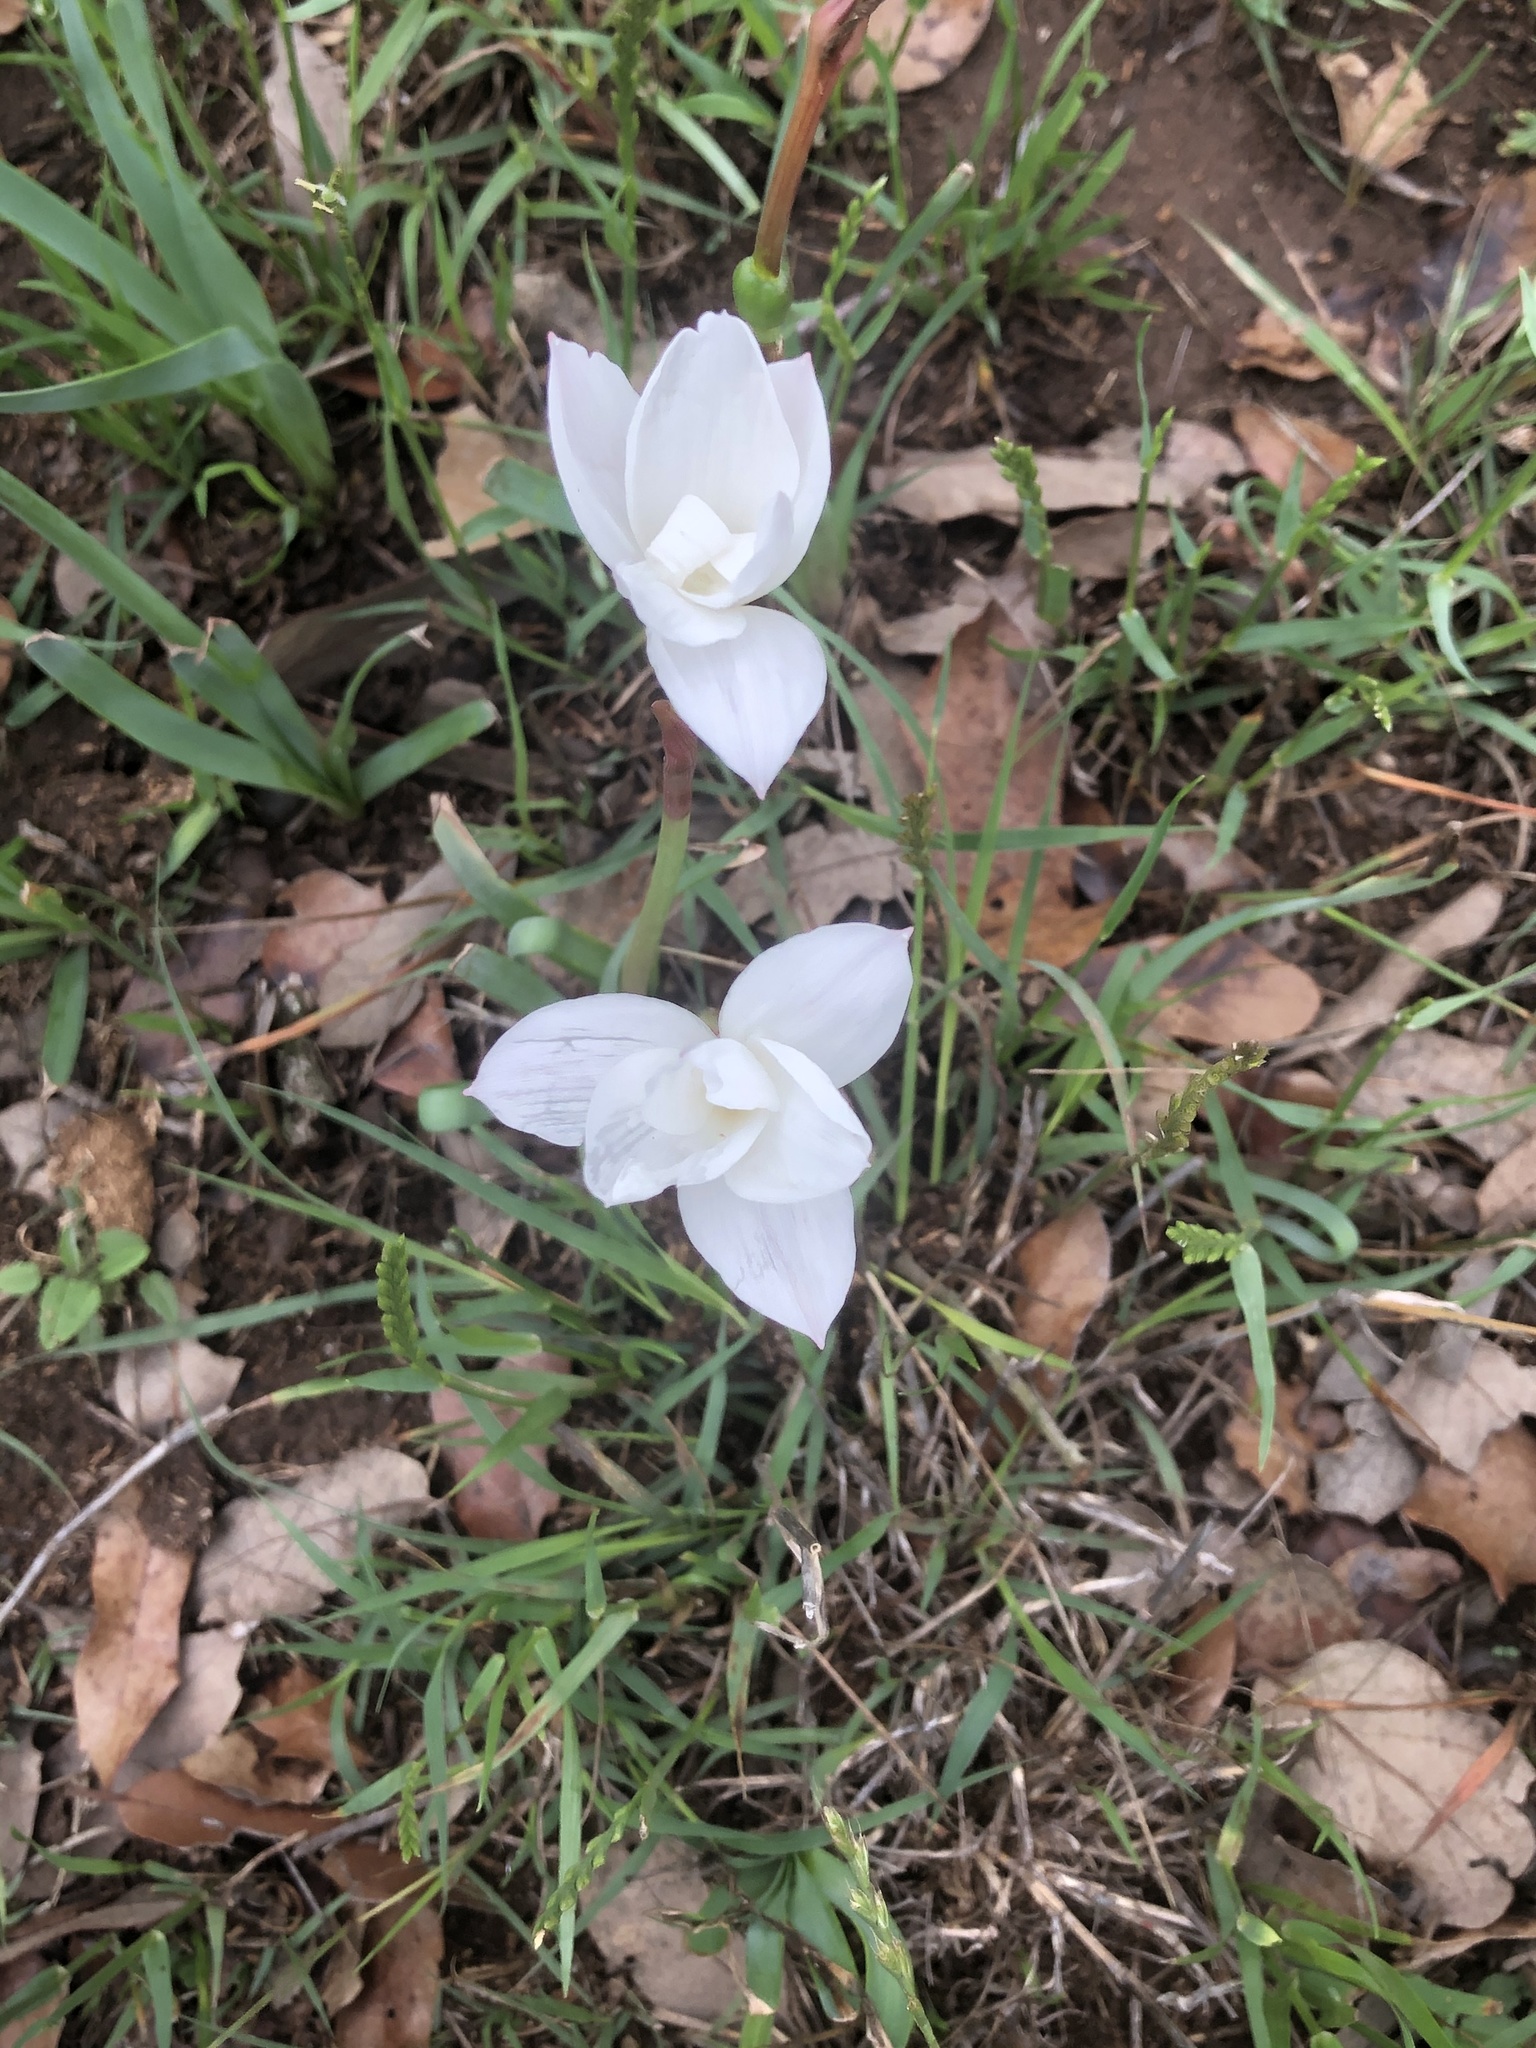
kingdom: Plantae
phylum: Tracheophyta
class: Liliopsida
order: Asparagales
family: Amaryllidaceae
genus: Zephyranthes
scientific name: Zephyranthes drummondii
